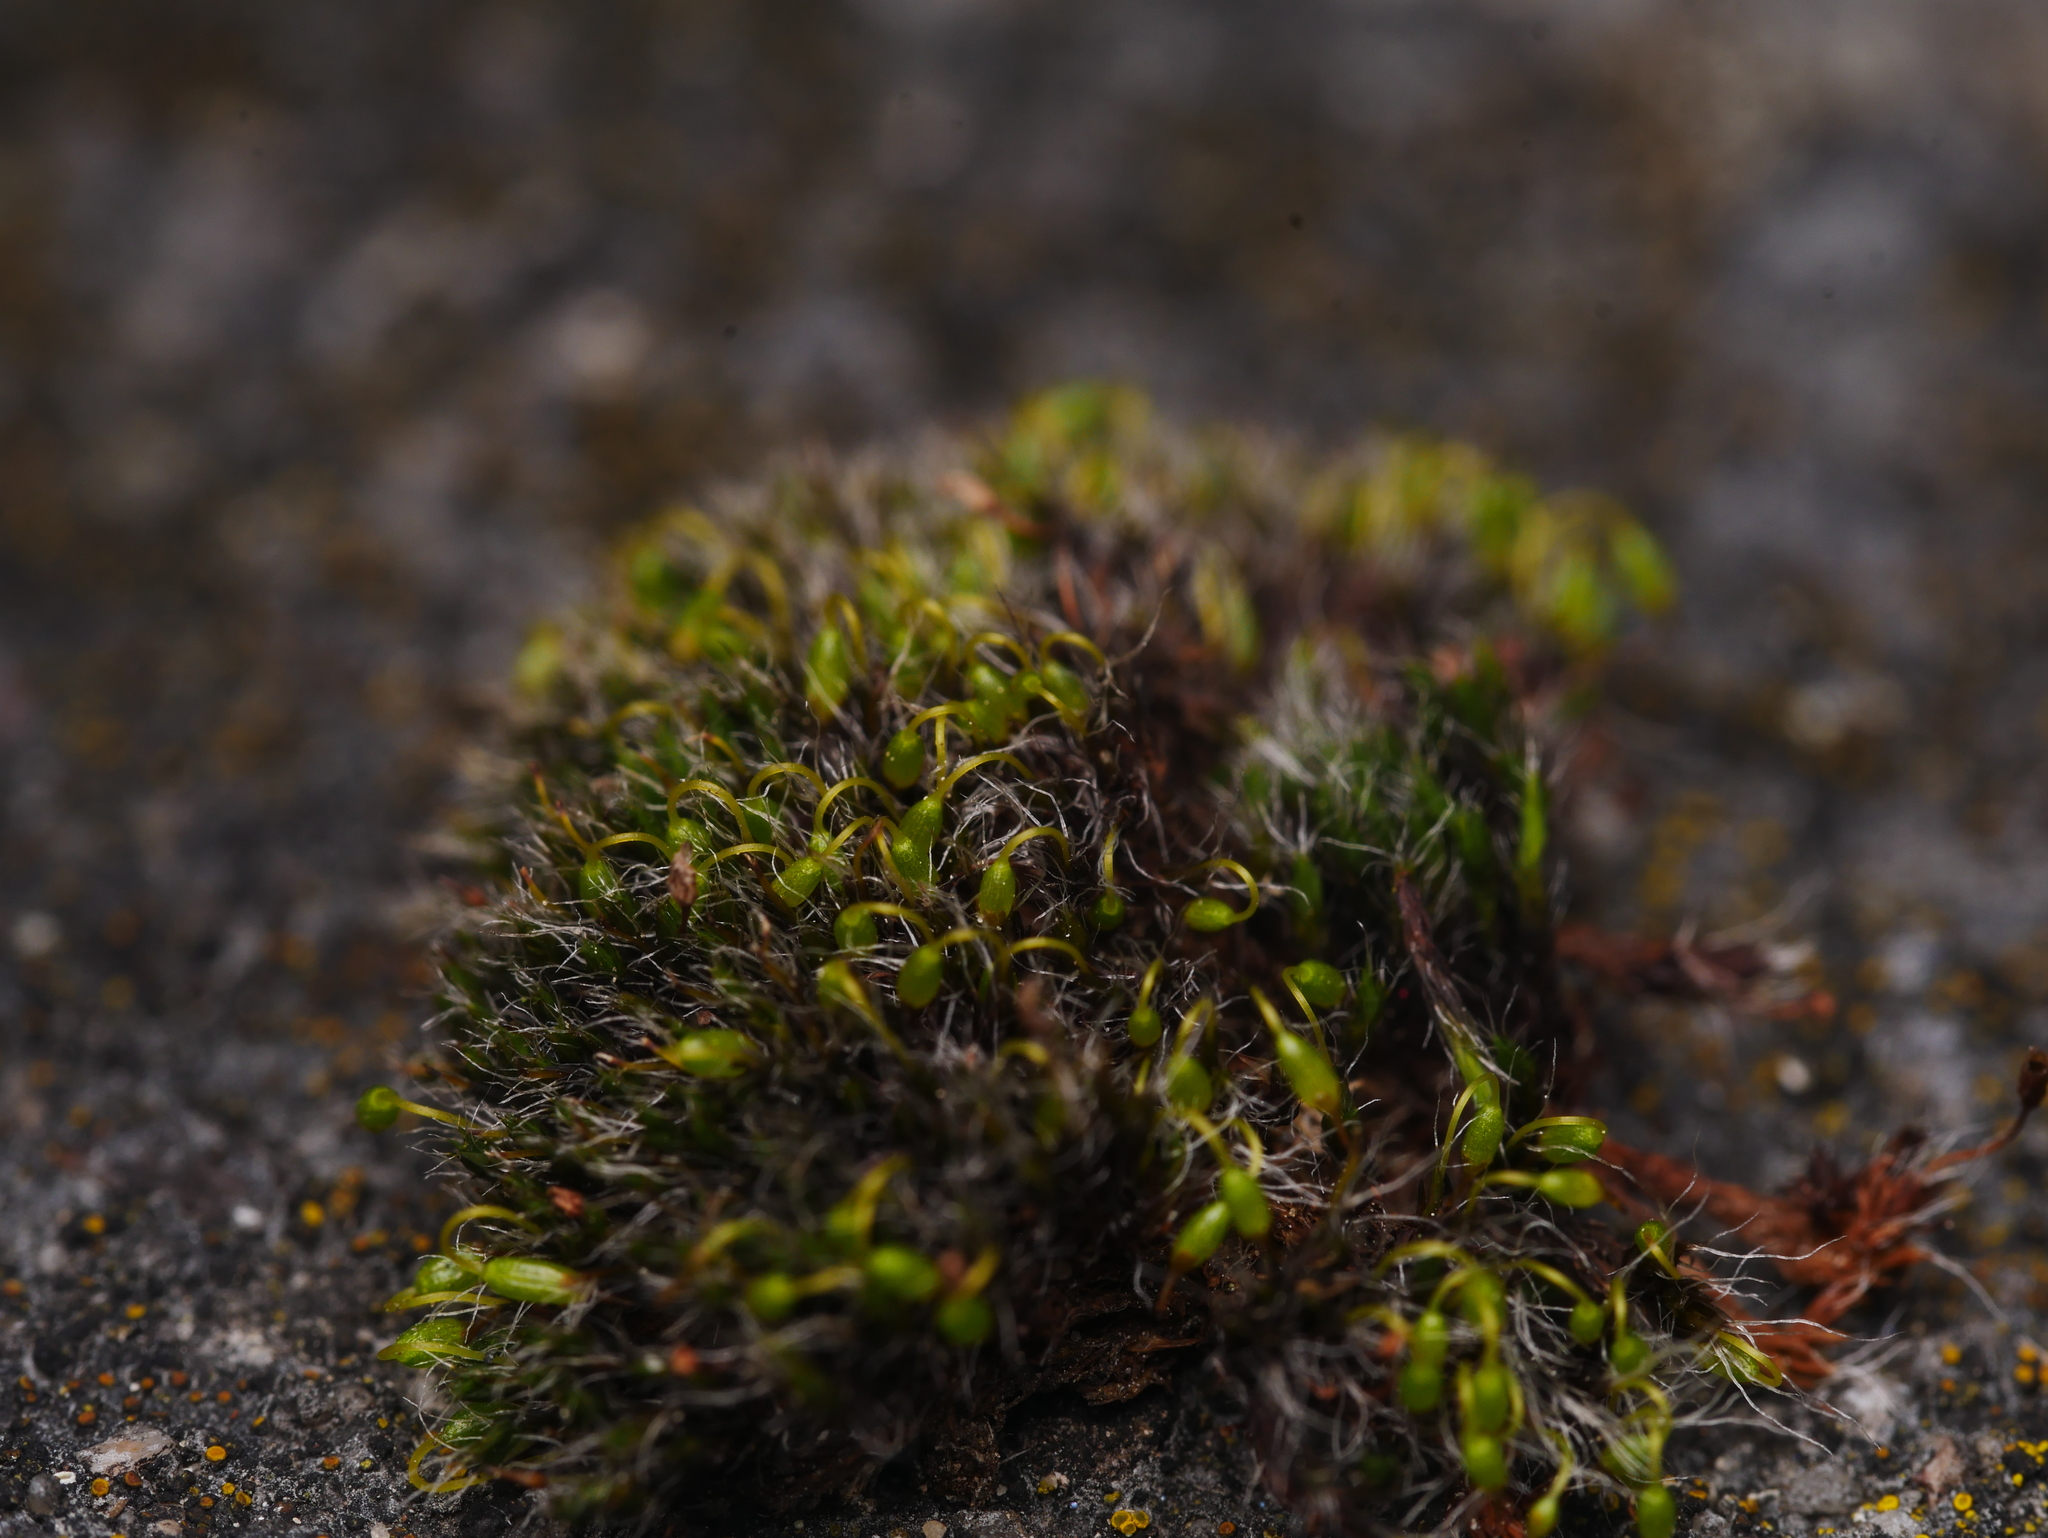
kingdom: Plantae
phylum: Bryophyta
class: Bryopsida
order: Grimmiales
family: Grimmiaceae
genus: Grimmia
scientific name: Grimmia pulvinata
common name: Grey-cushioned grimmia
